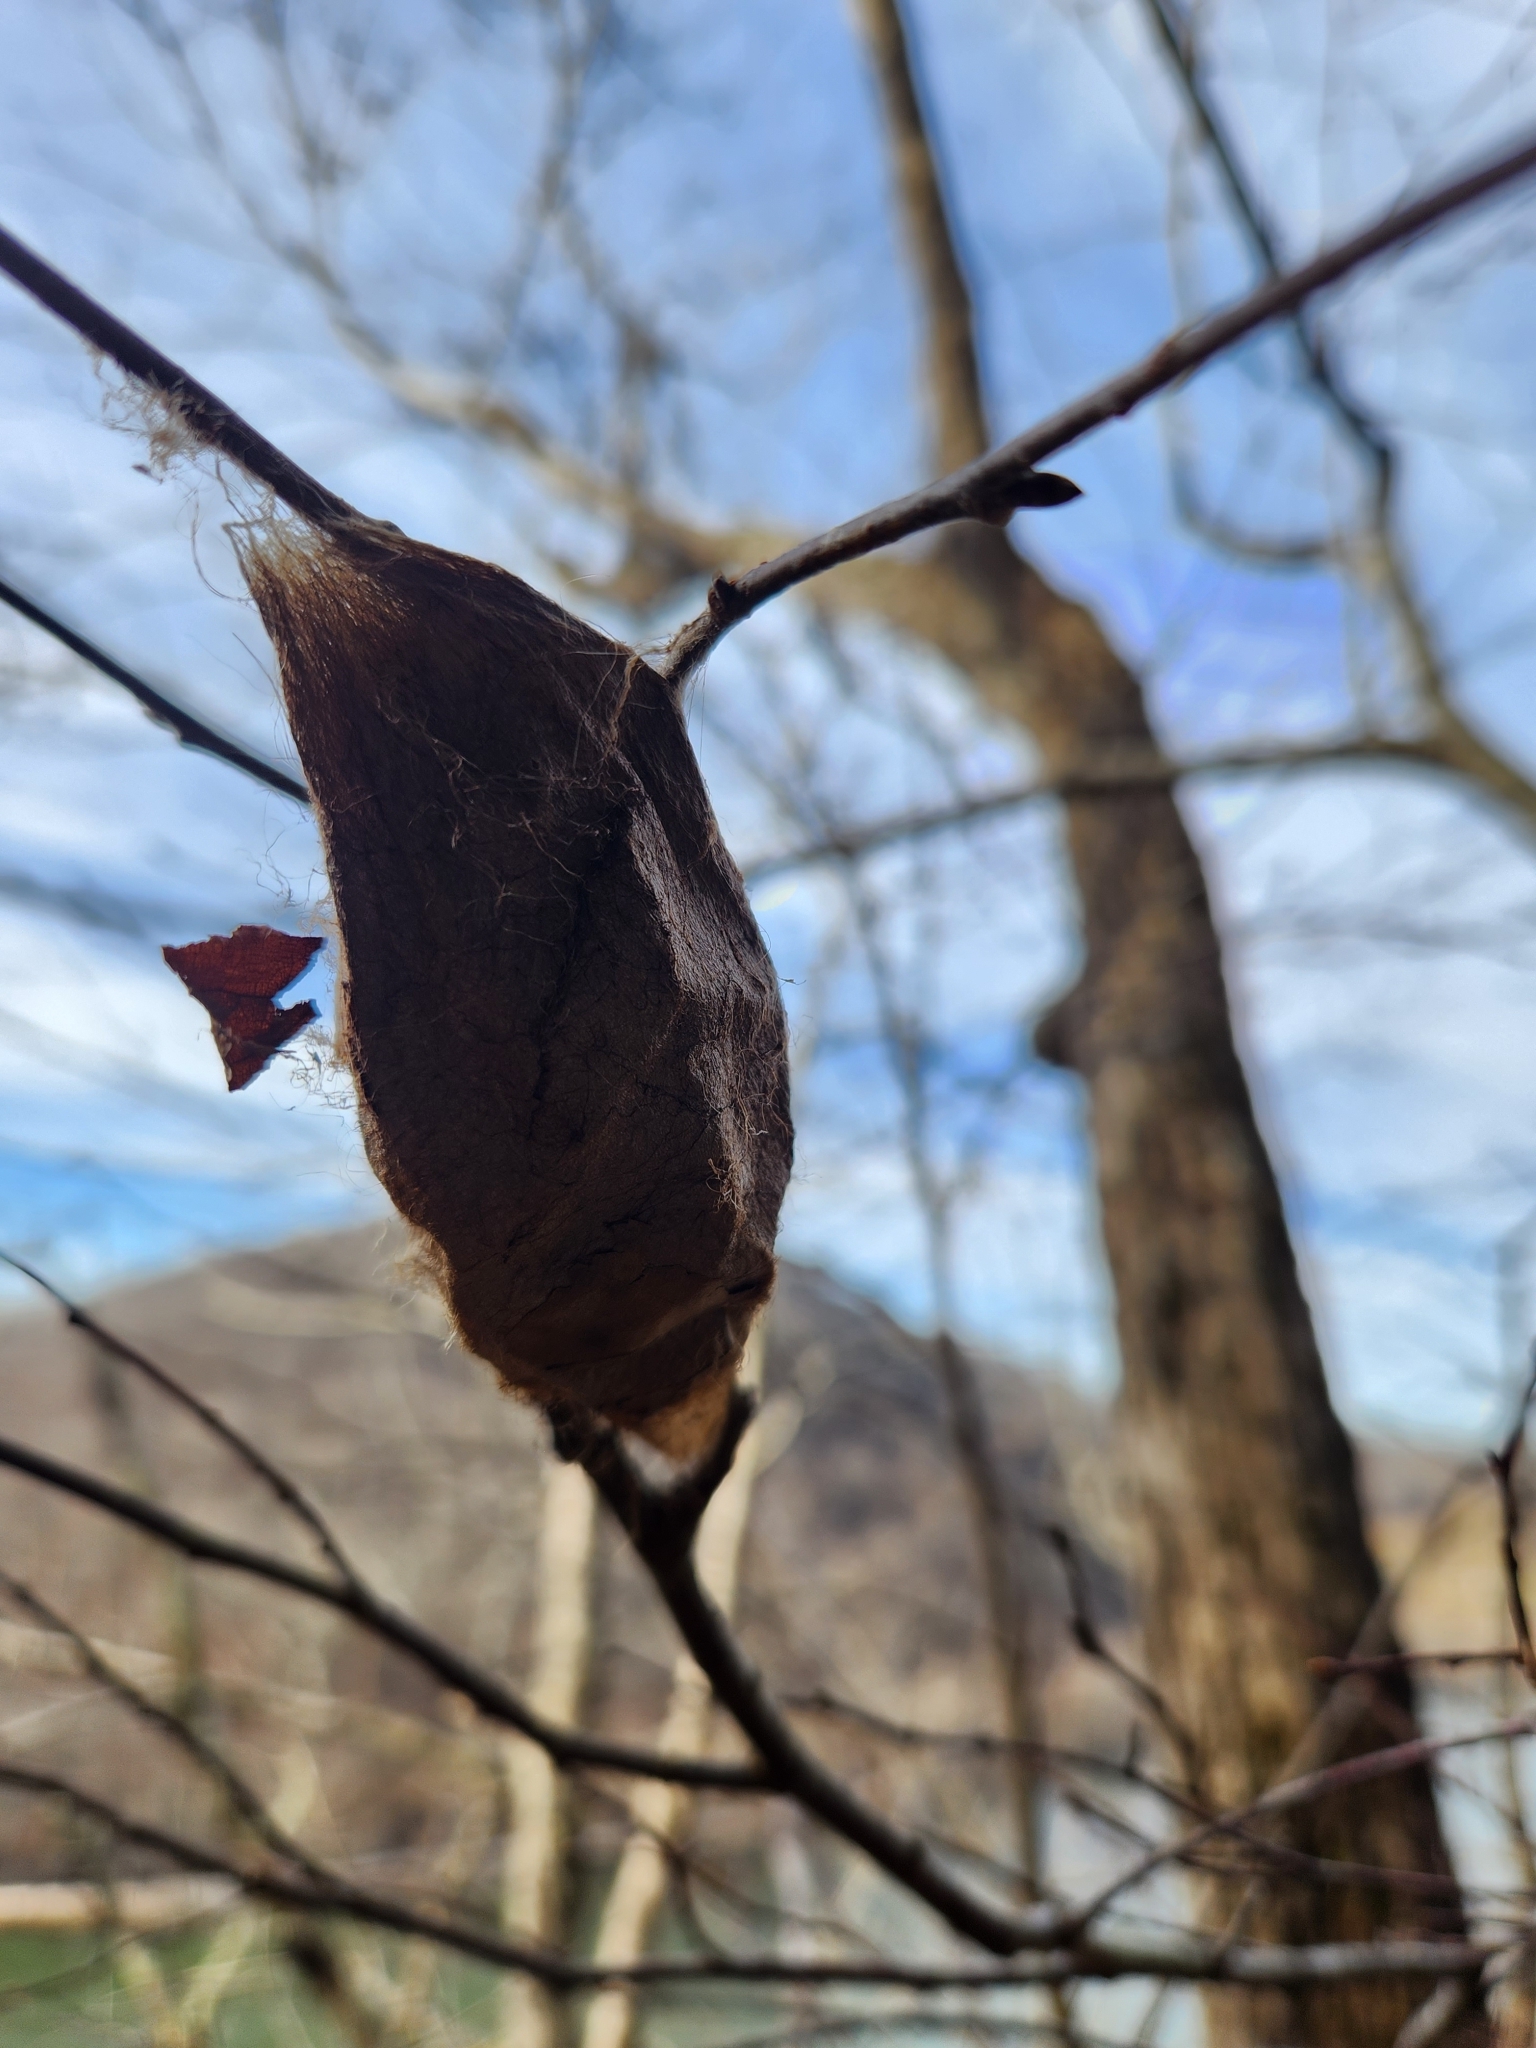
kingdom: Animalia
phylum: Arthropoda
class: Insecta
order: Lepidoptera
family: Saturniidae
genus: Hyalophora
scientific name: Hyalophora cecropia
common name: Cecropia silkmoth
